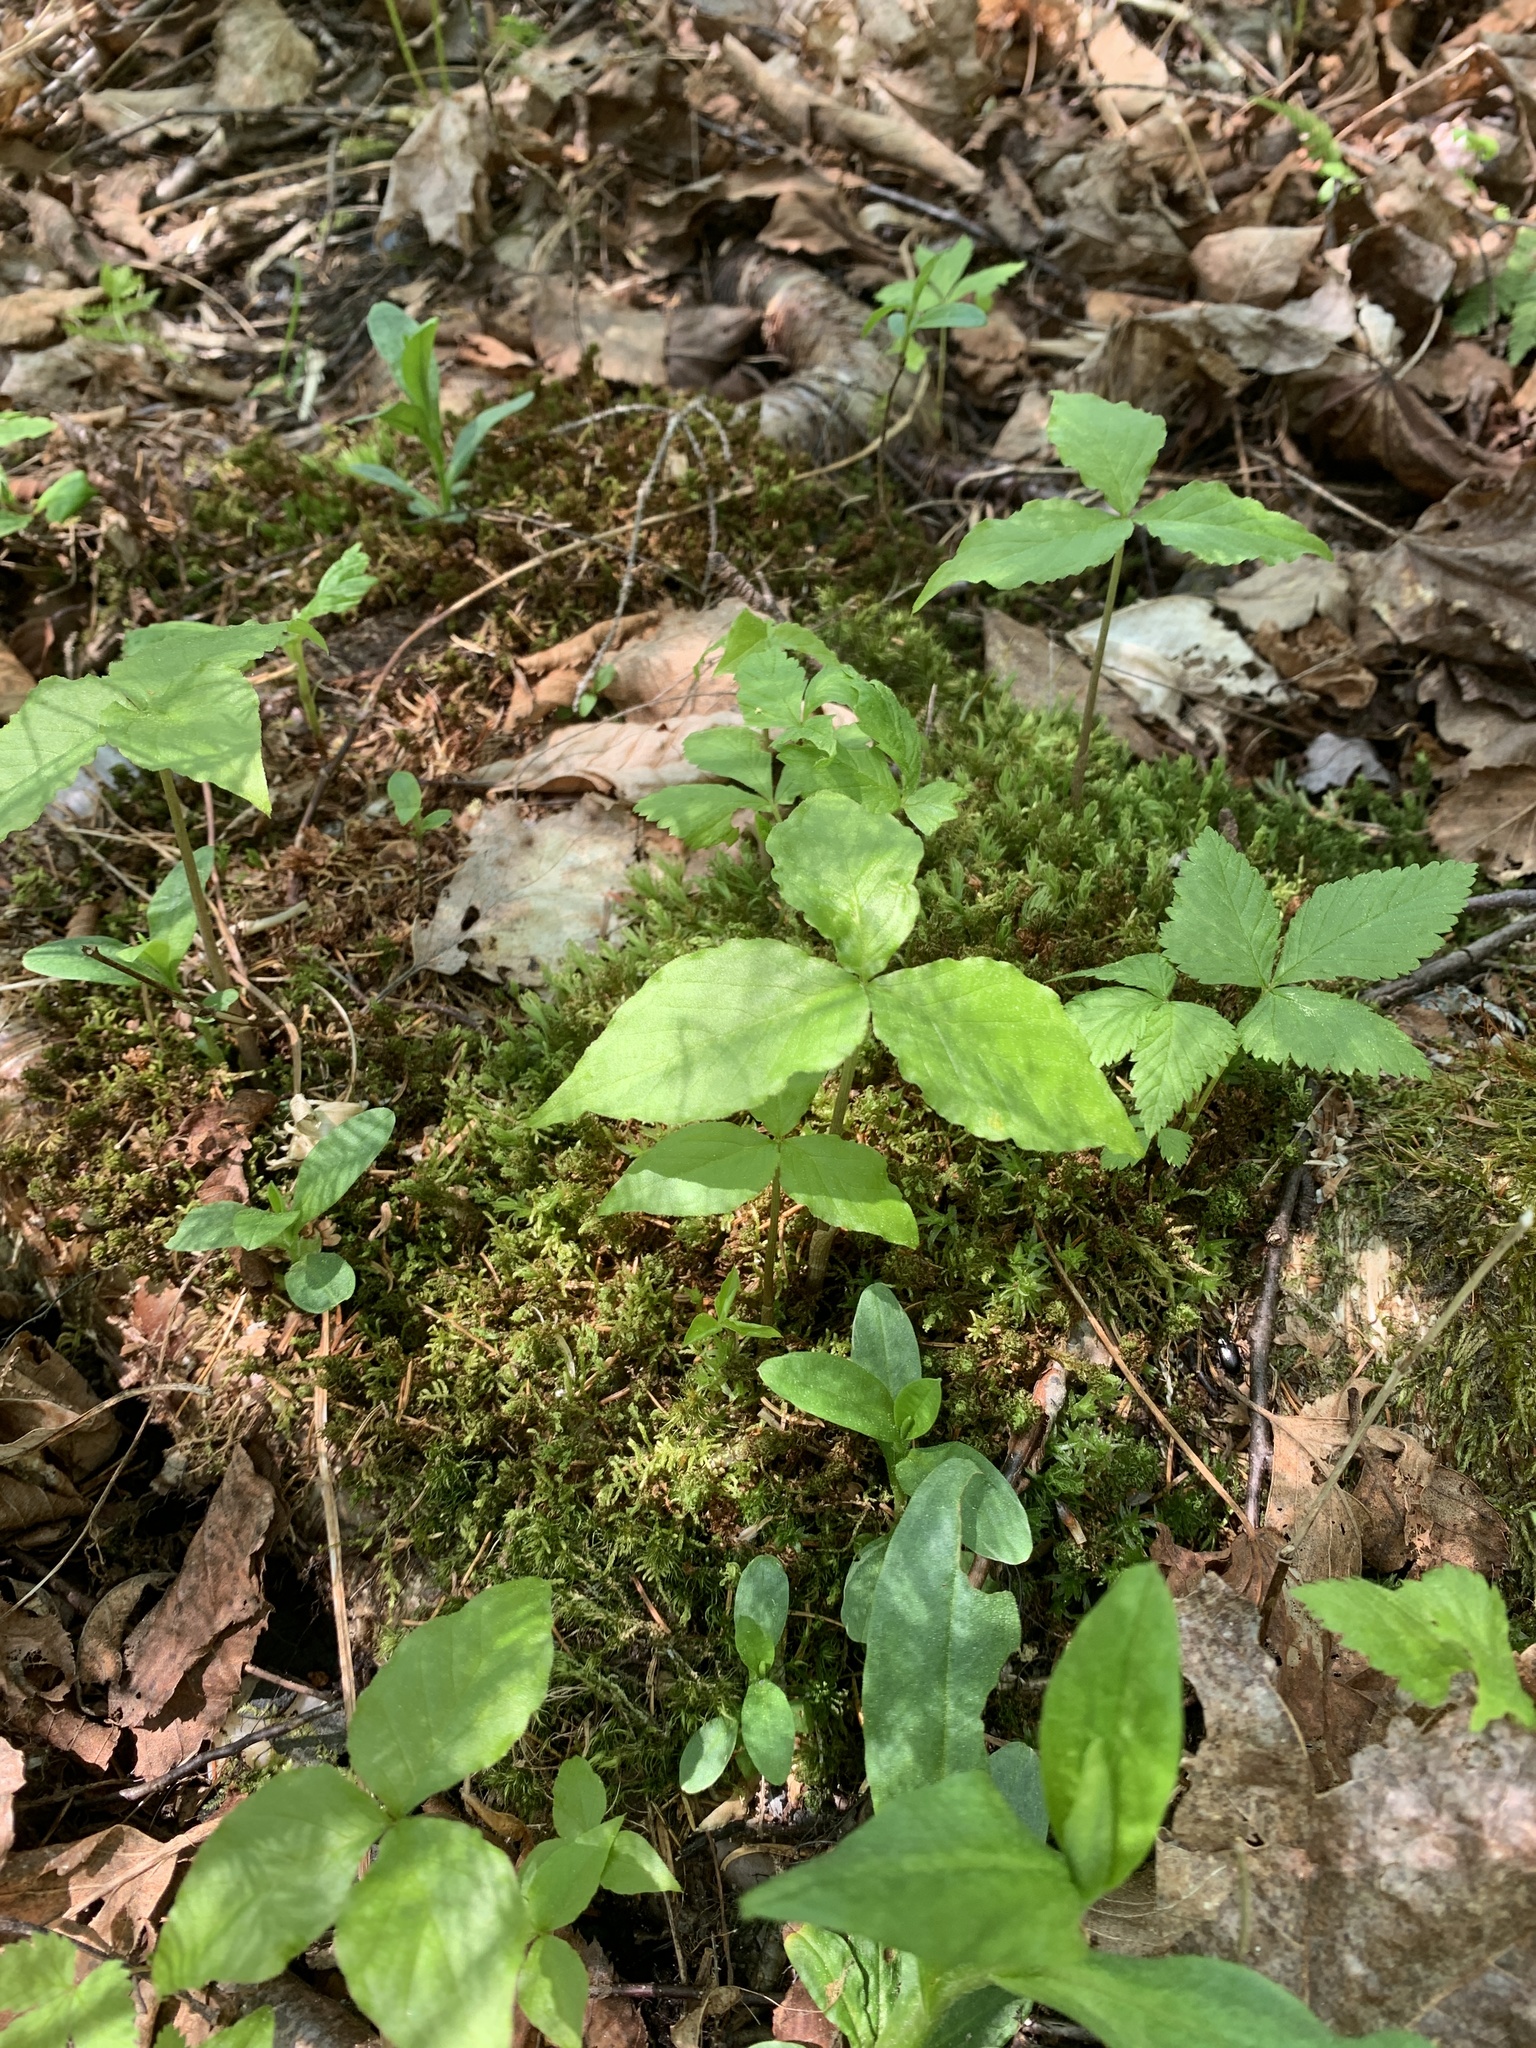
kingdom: Plantae
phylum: Tracheophyta
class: Liliopsida
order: Alismatales
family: Araceae
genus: Arisaema
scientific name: Arisaema triphyllum
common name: Jack-in-the-pulpit
